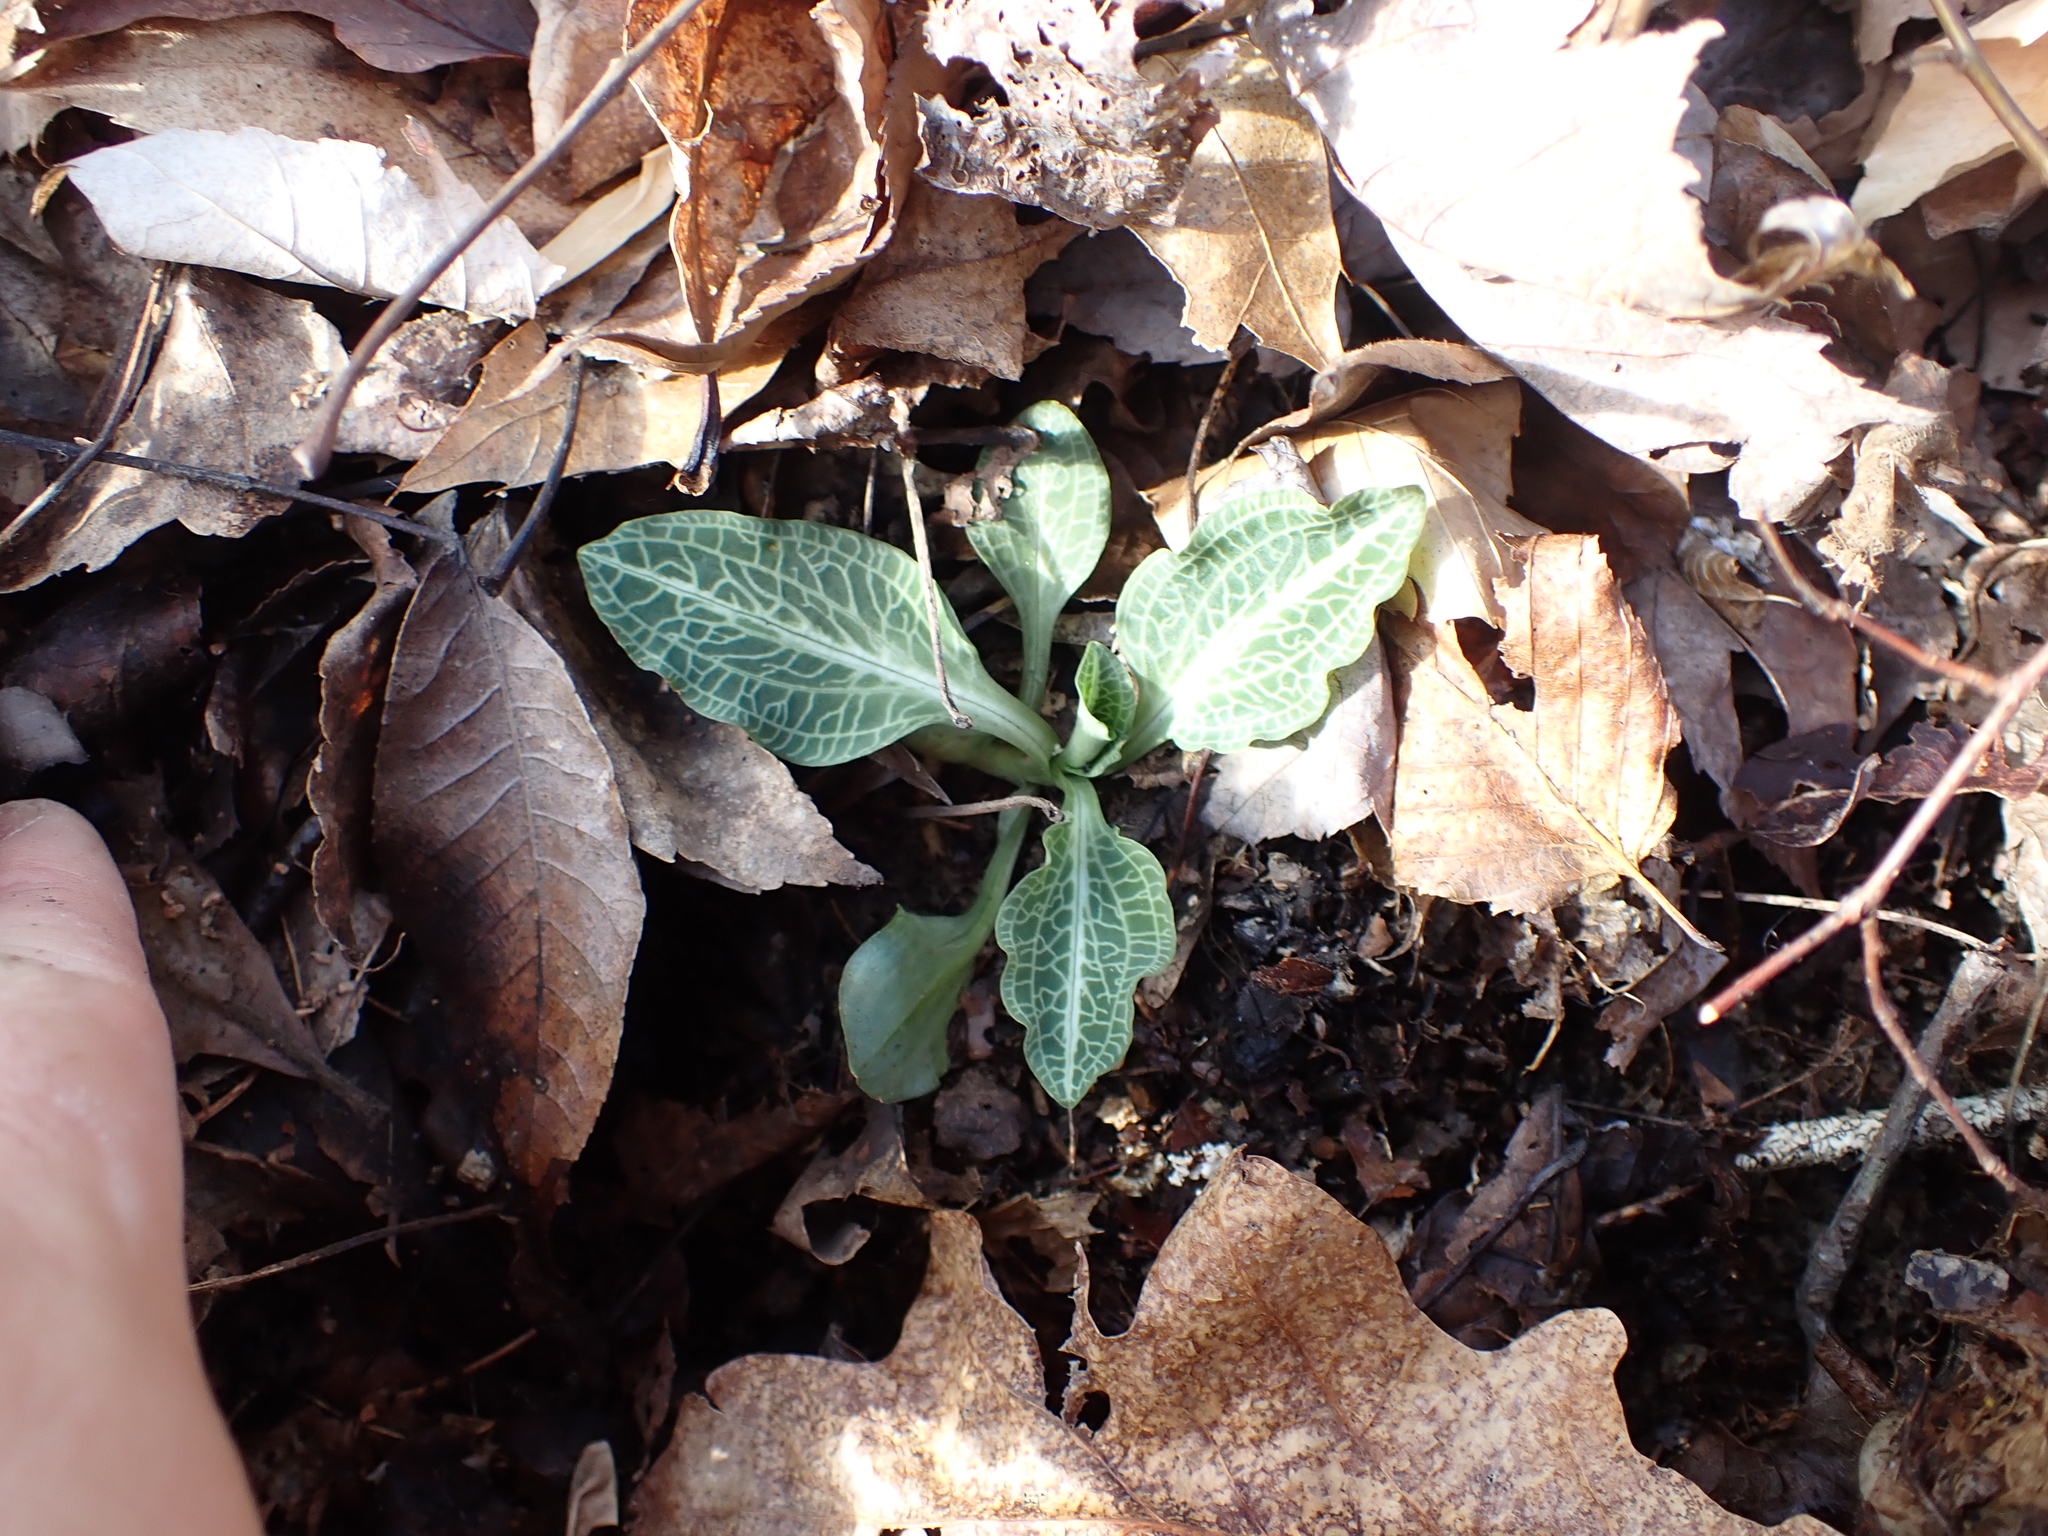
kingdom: Plantae
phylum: Tracheophyta
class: Liliopsida
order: Asparagales
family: Orchidaceae
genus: Goodyera
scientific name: Goodyera pubescens
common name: Downy rattlesnake-plantain
